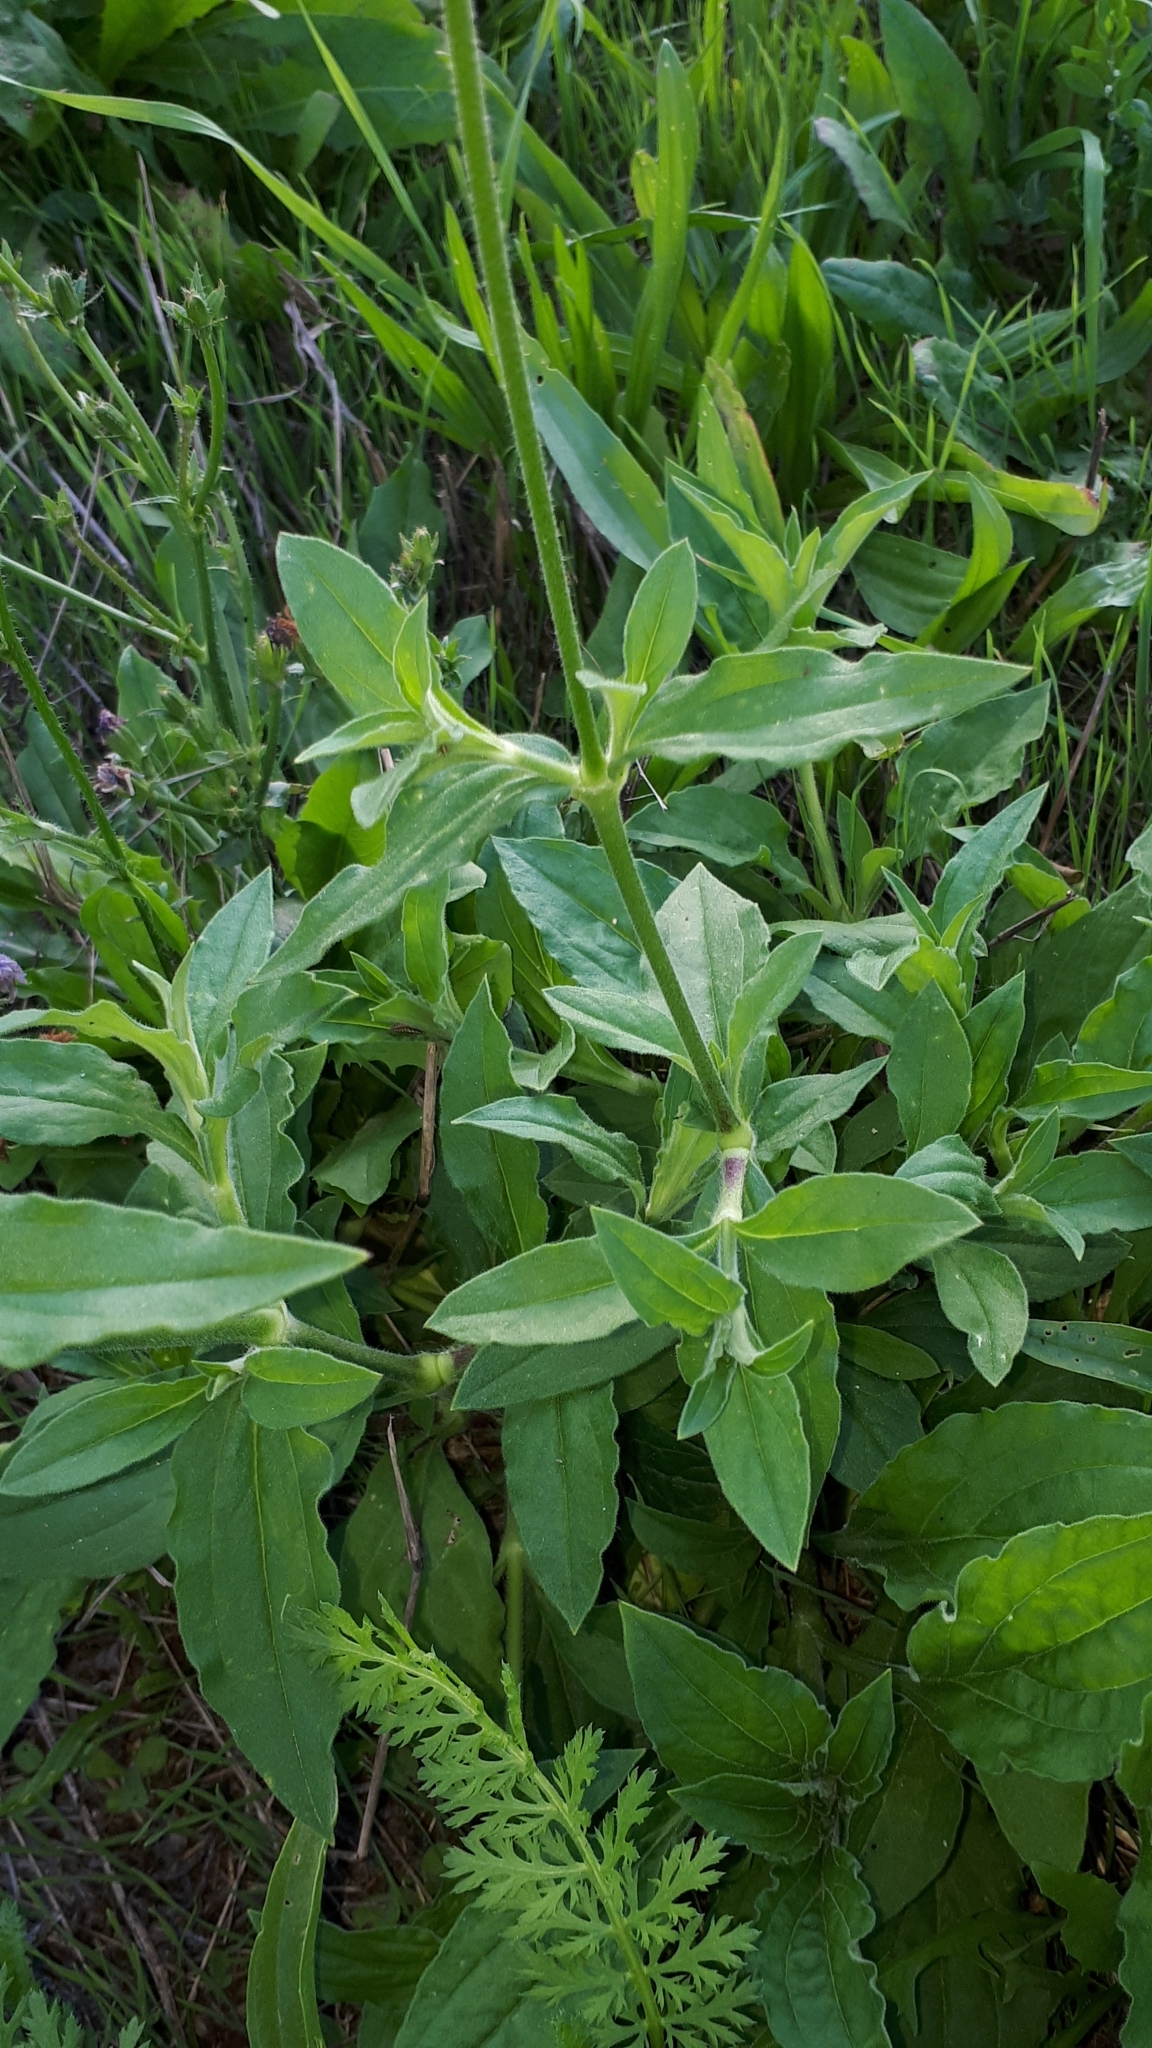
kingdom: Plantae
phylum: Tracheophyta
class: Magnoliopsida
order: Caryophyllales
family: Caryophyllaceae
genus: Silene
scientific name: Silene latifolia
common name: White campion
